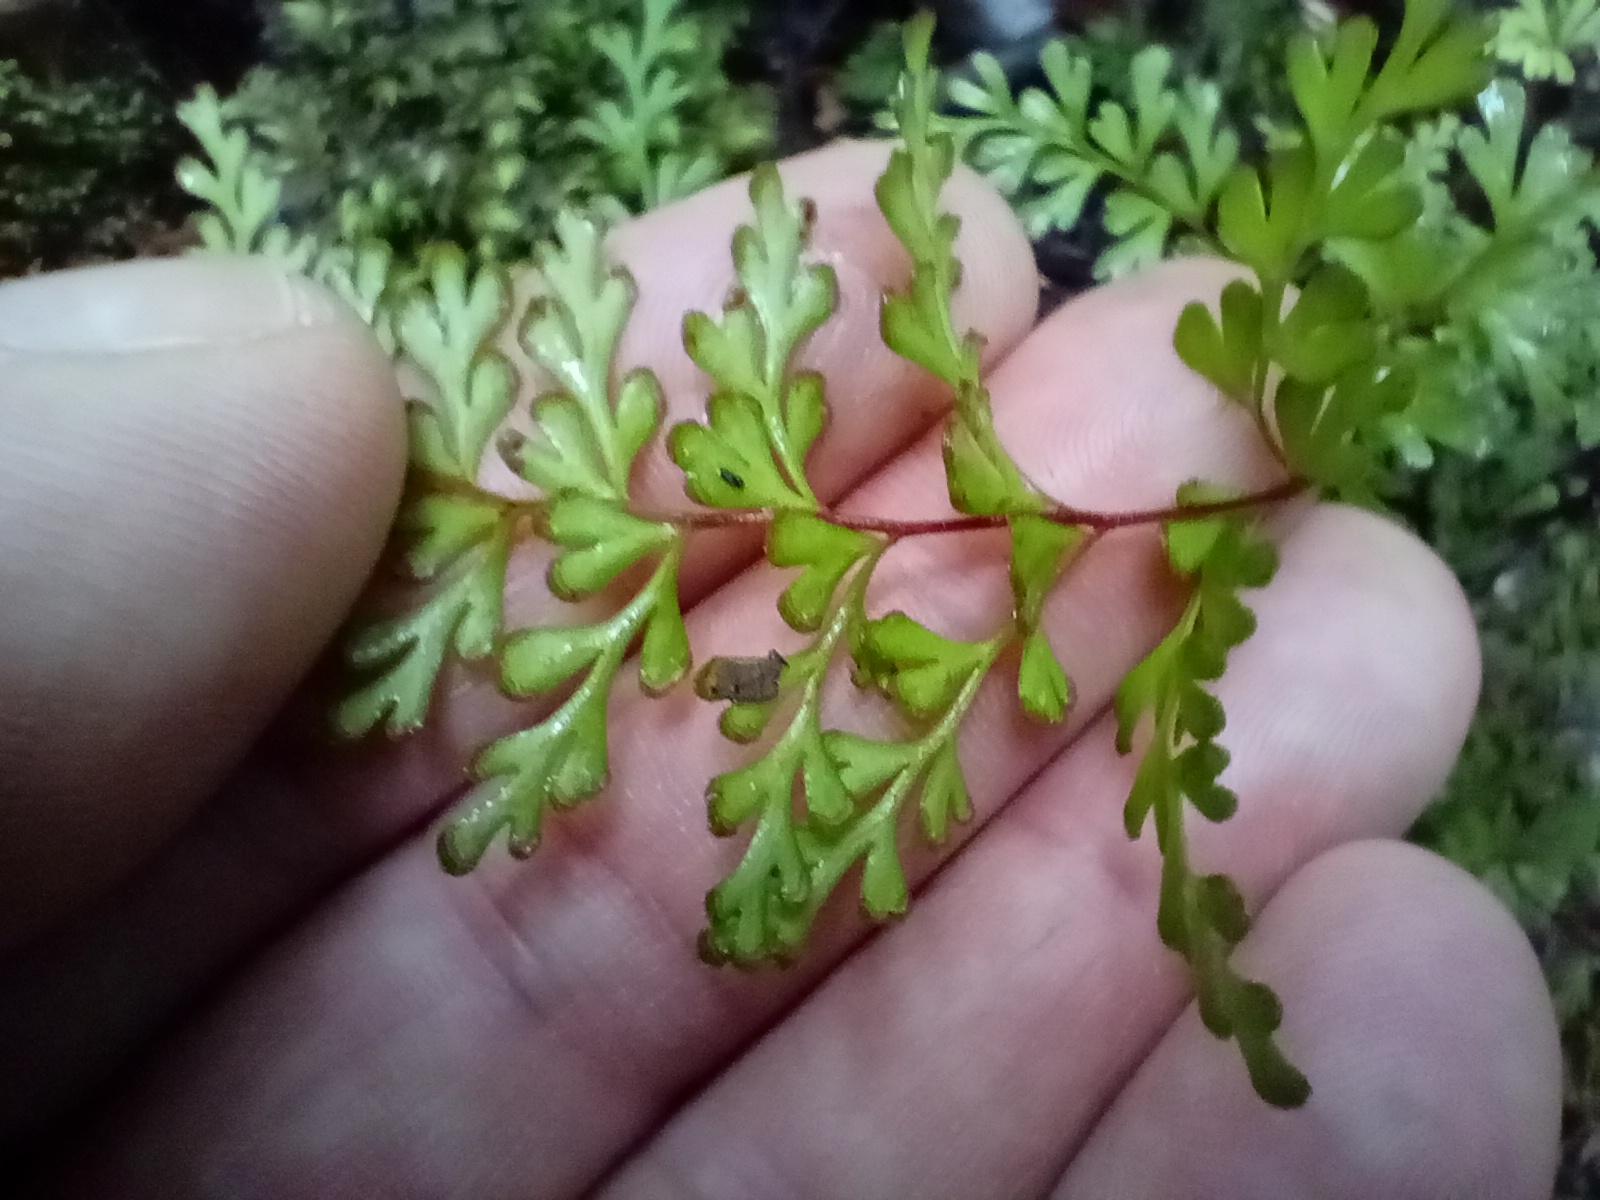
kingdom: Plantae
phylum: Tracheophyta
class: Polypodiopsida
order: Polypodiales
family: Lindsaeaceae
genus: Lindsaea
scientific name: Lindsaea trichomanoides
